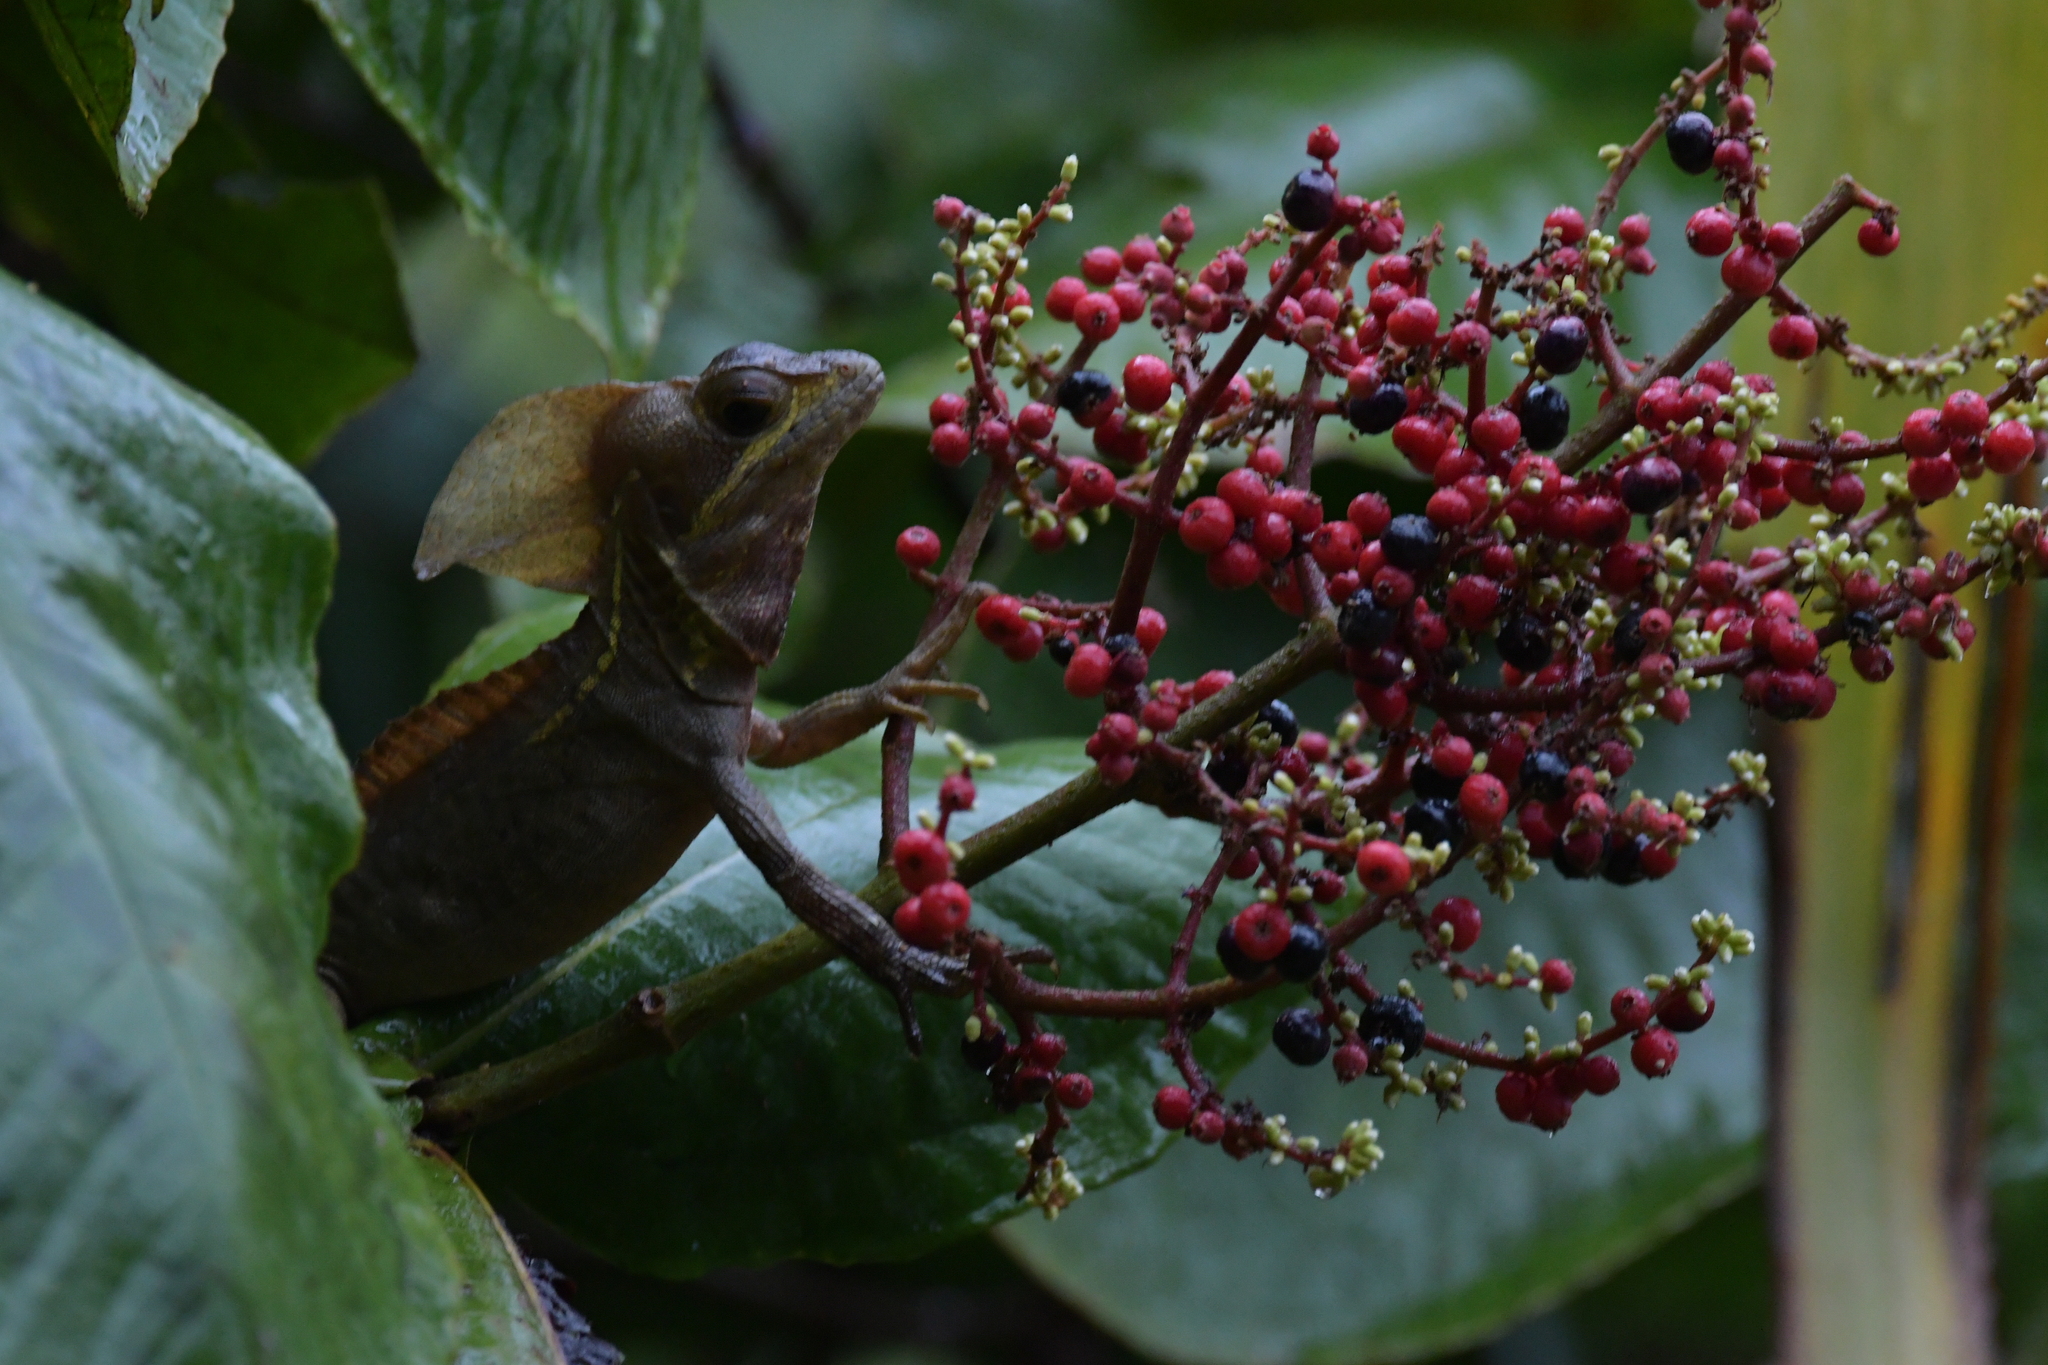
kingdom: Animalia
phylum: Chordata
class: Squamata
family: Corytophanidae
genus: Basiliscus
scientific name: Basiliscus vittatus
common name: Brown basilisk
